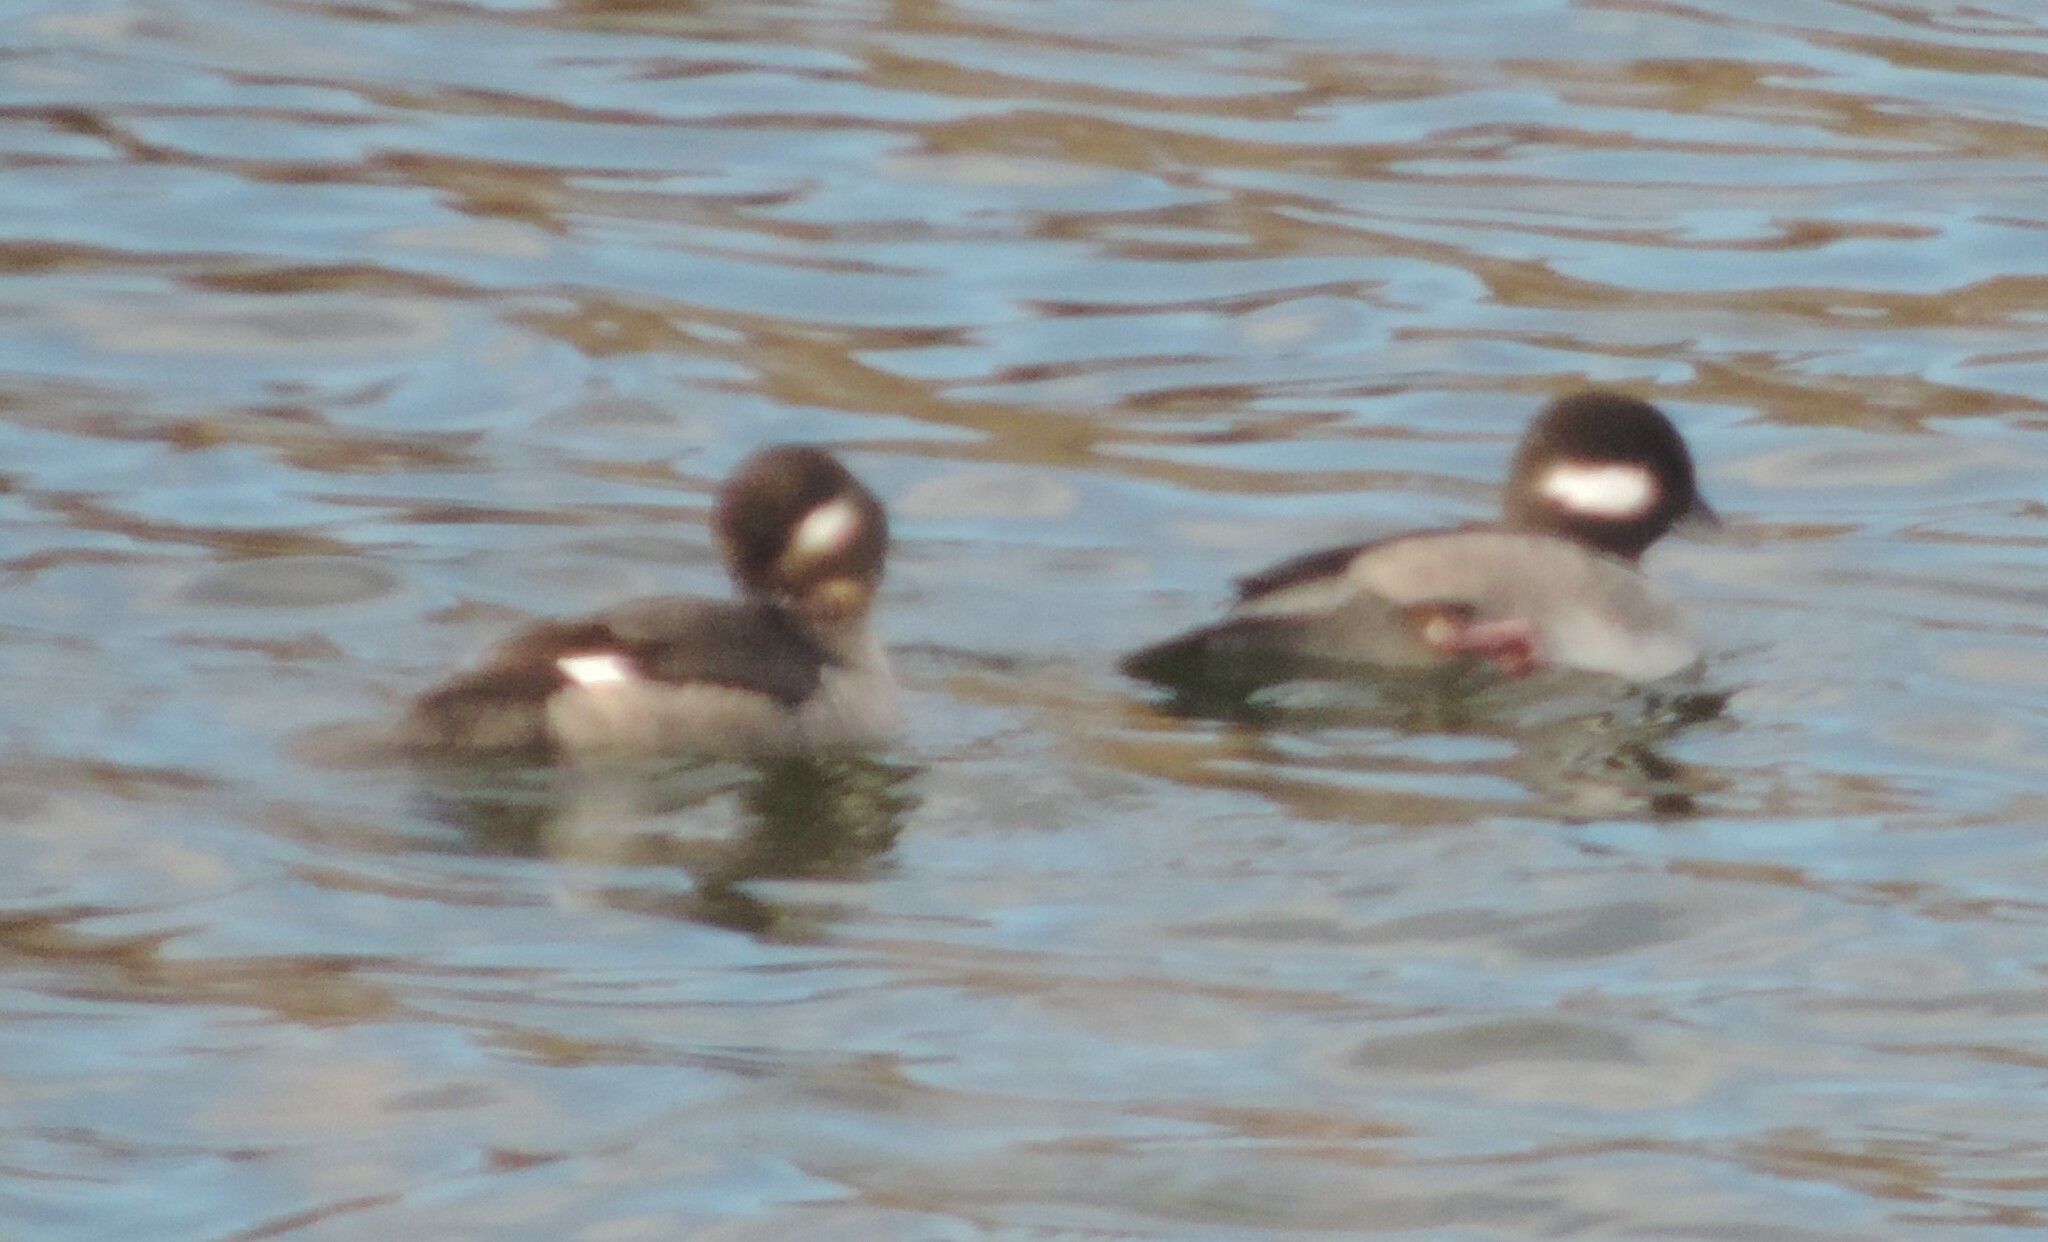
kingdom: Animalia
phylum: Chordata
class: Aves
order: Anseriformes
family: Anatidae
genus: Bucephala
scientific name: Bucephala albeola
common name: Bufflehead
